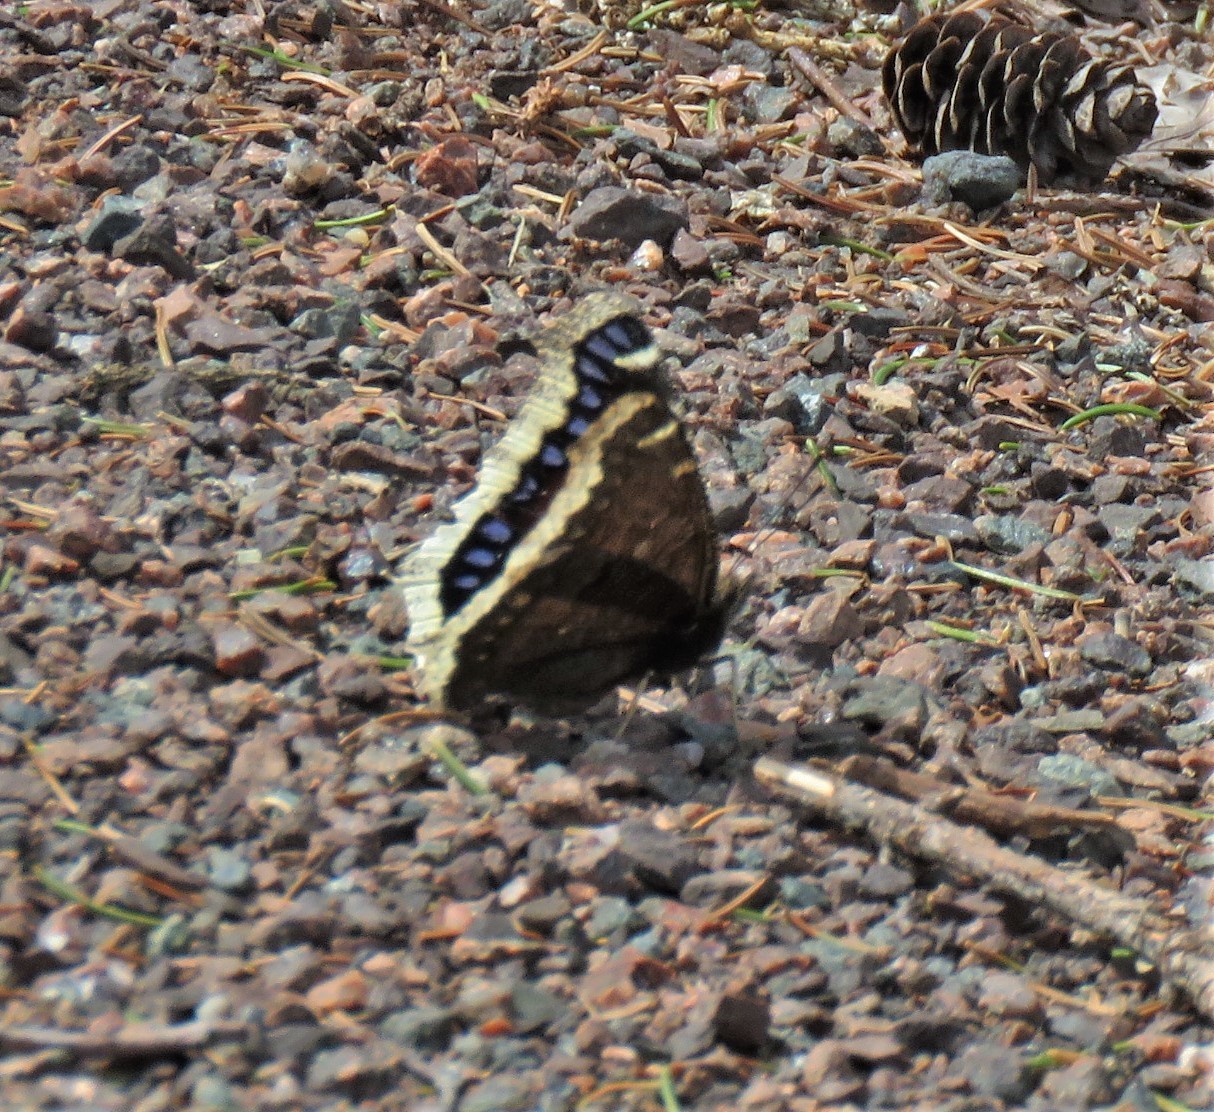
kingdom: Animalia
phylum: Arthropoda
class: Insecta
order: Lepidoptera
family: Nymphalidae
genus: Nymphalis
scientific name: Nymphalis antiopa
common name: Camberwell beauty
